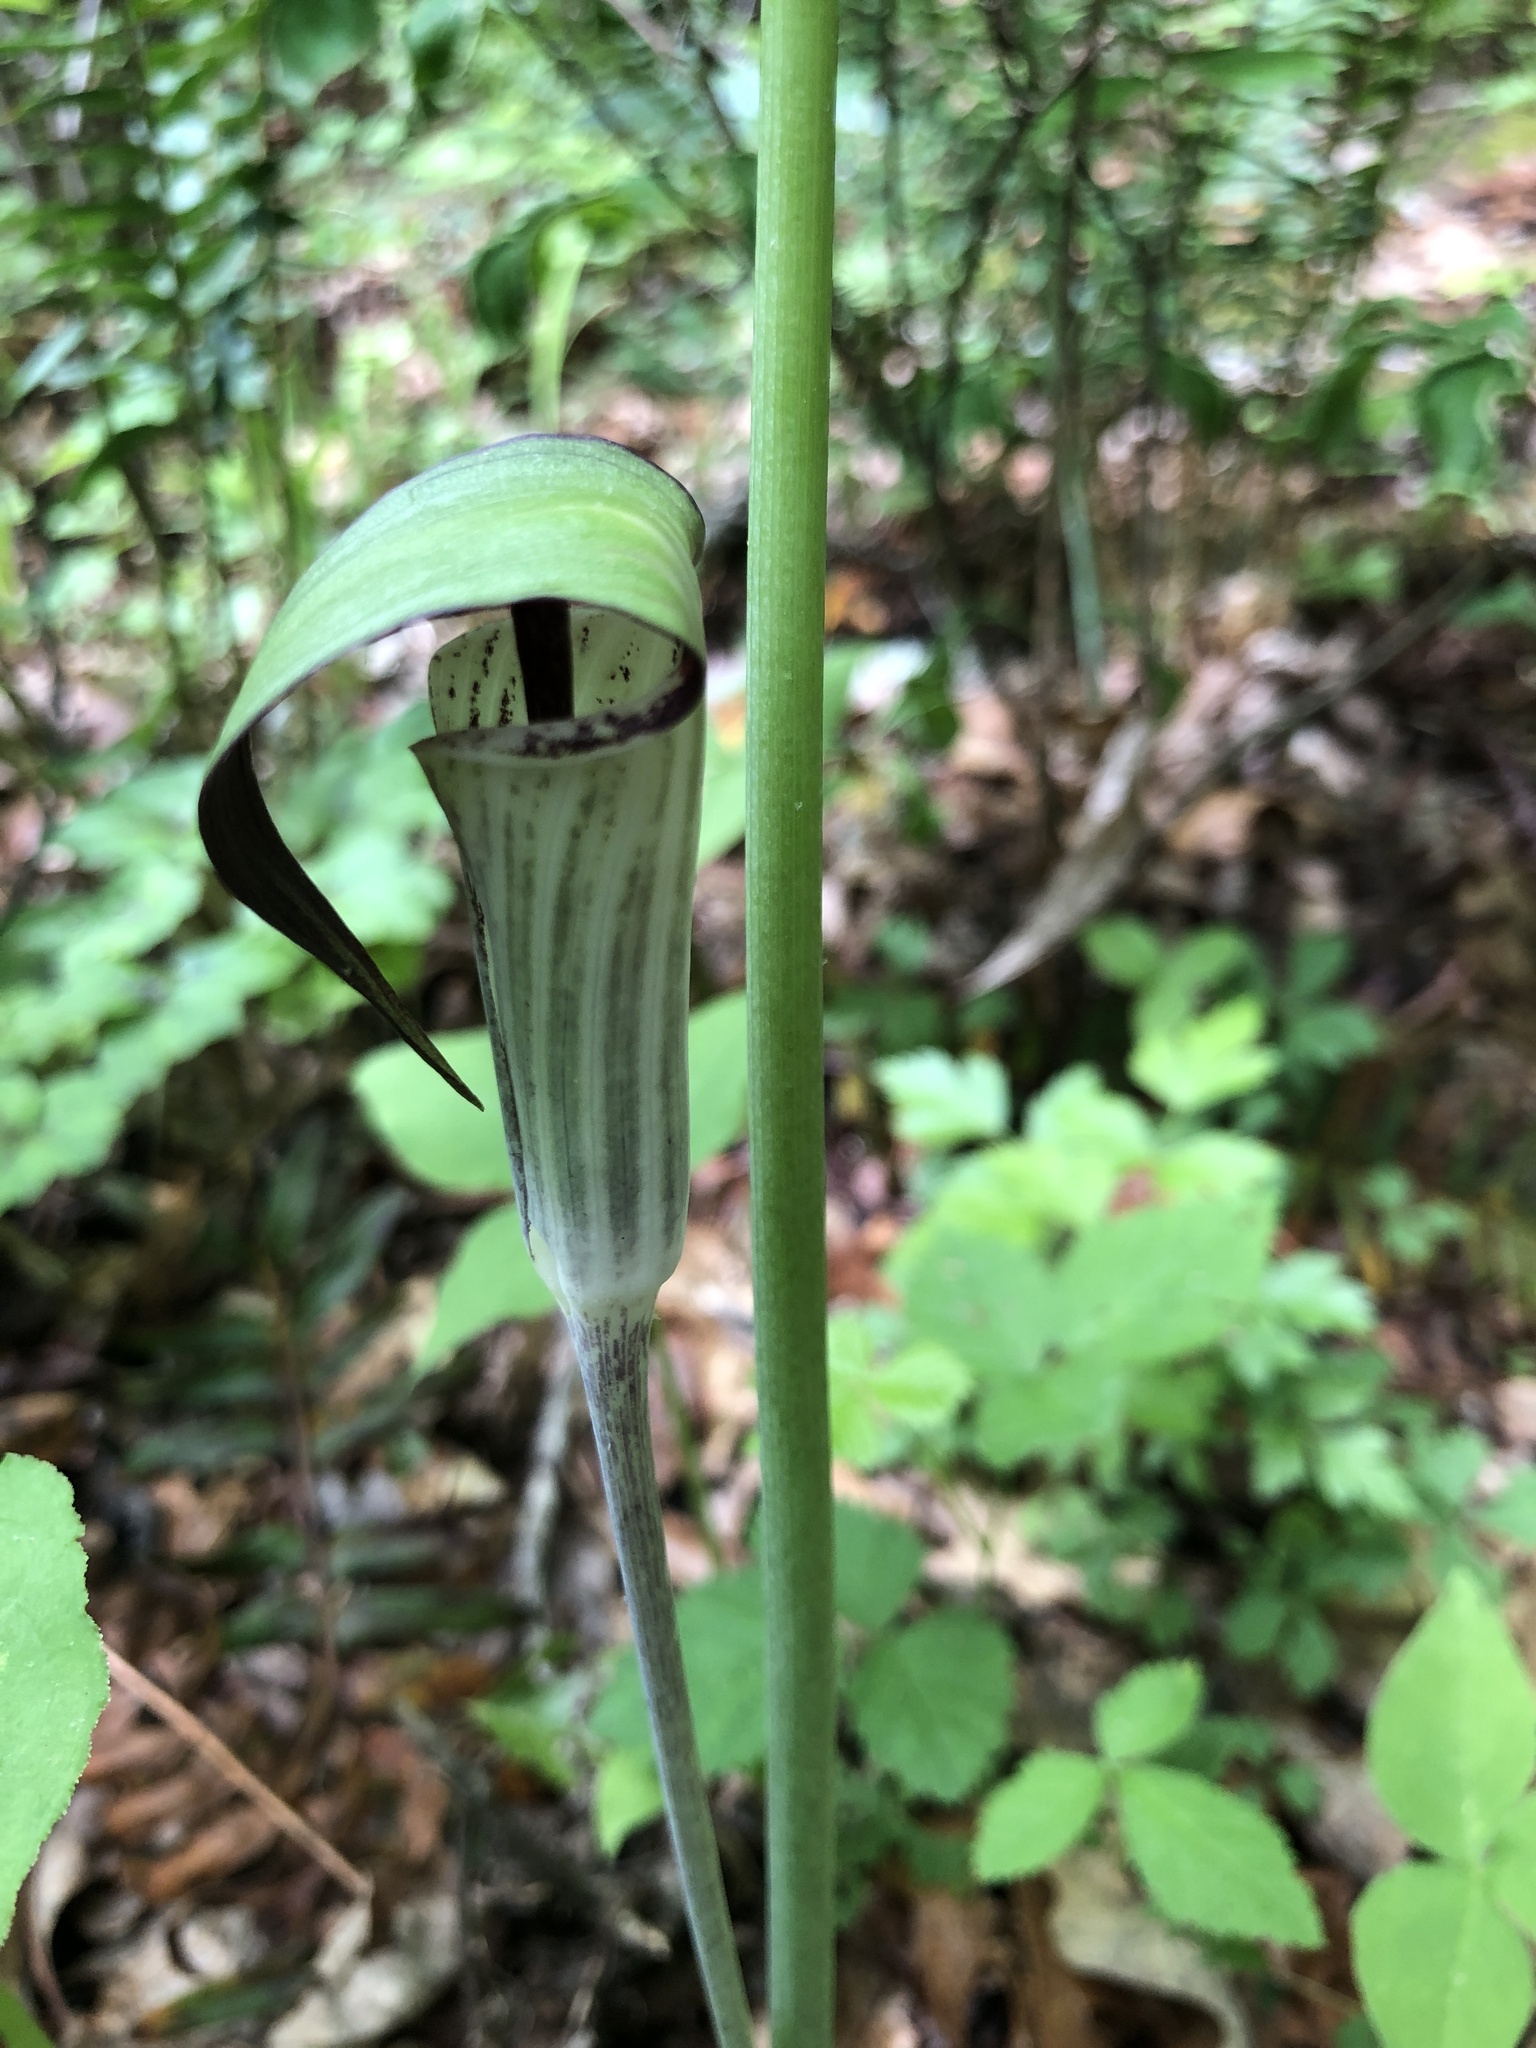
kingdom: Plantae
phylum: Tracheophyta
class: Liliopsida
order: Alismatales
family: Araceae
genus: Arisaema
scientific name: Arisaema triphyllum
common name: Jack-in-the-pulpit
